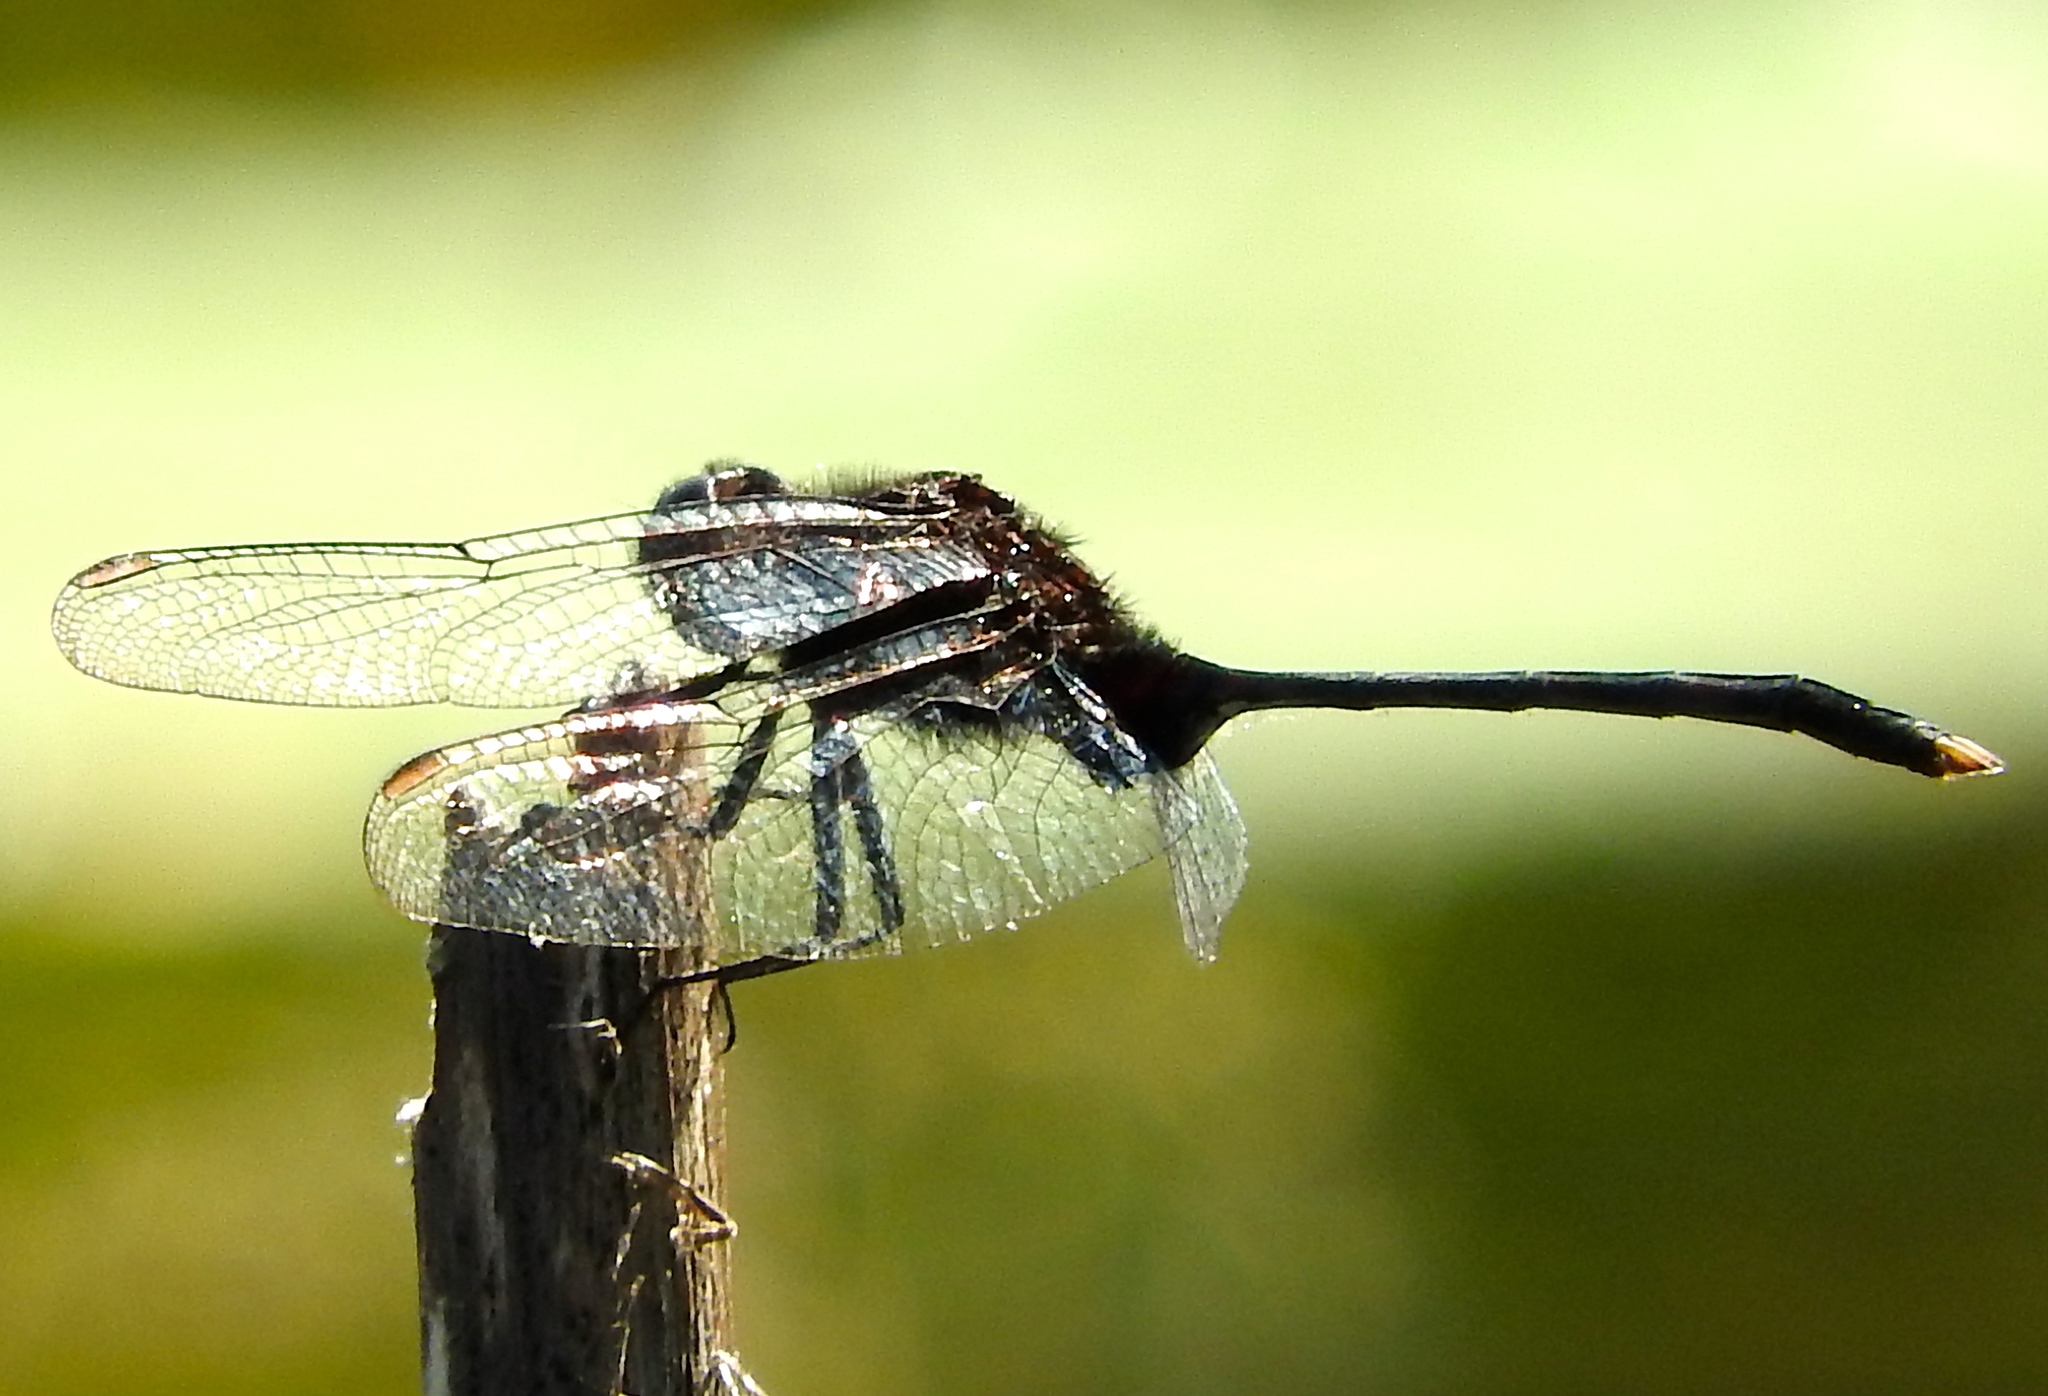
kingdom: Animalia
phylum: Arthropoda
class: Insecta
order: Odonata
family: Libellulidae
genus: Erythemis
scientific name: Erythemis plebeja
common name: Pin-tailed pondhawk
